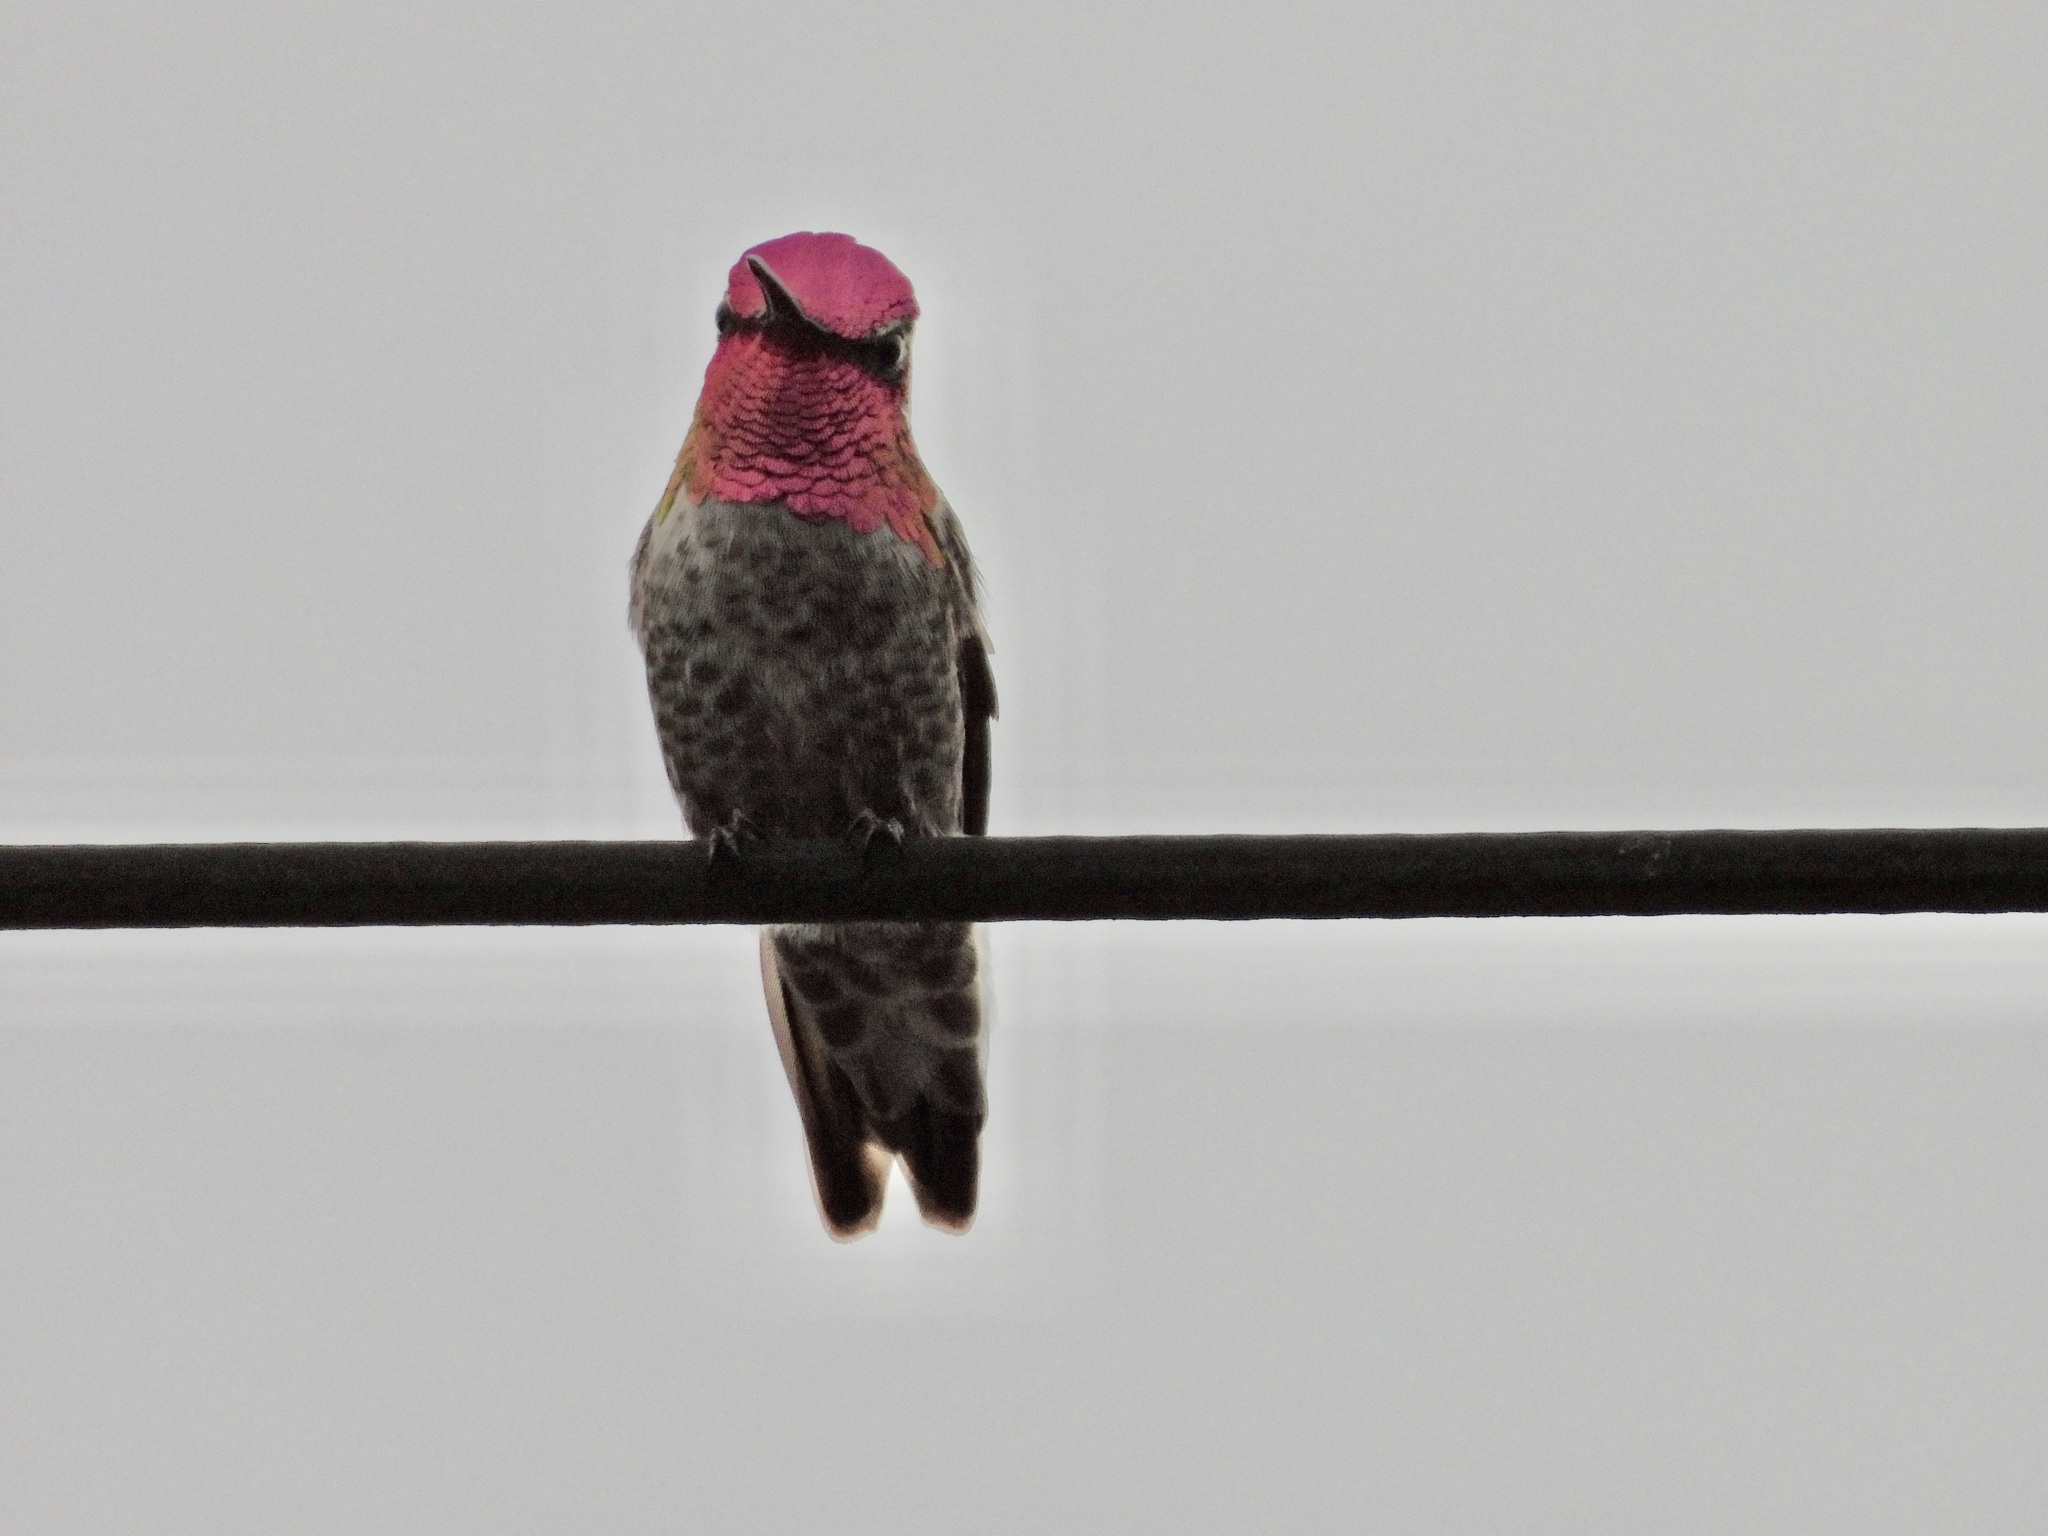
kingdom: Animalia
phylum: Chordata
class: Aves
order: Apodiformes
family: Trochilidae
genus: Calypte
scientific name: Calypte anna
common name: Anna's hummingbird
